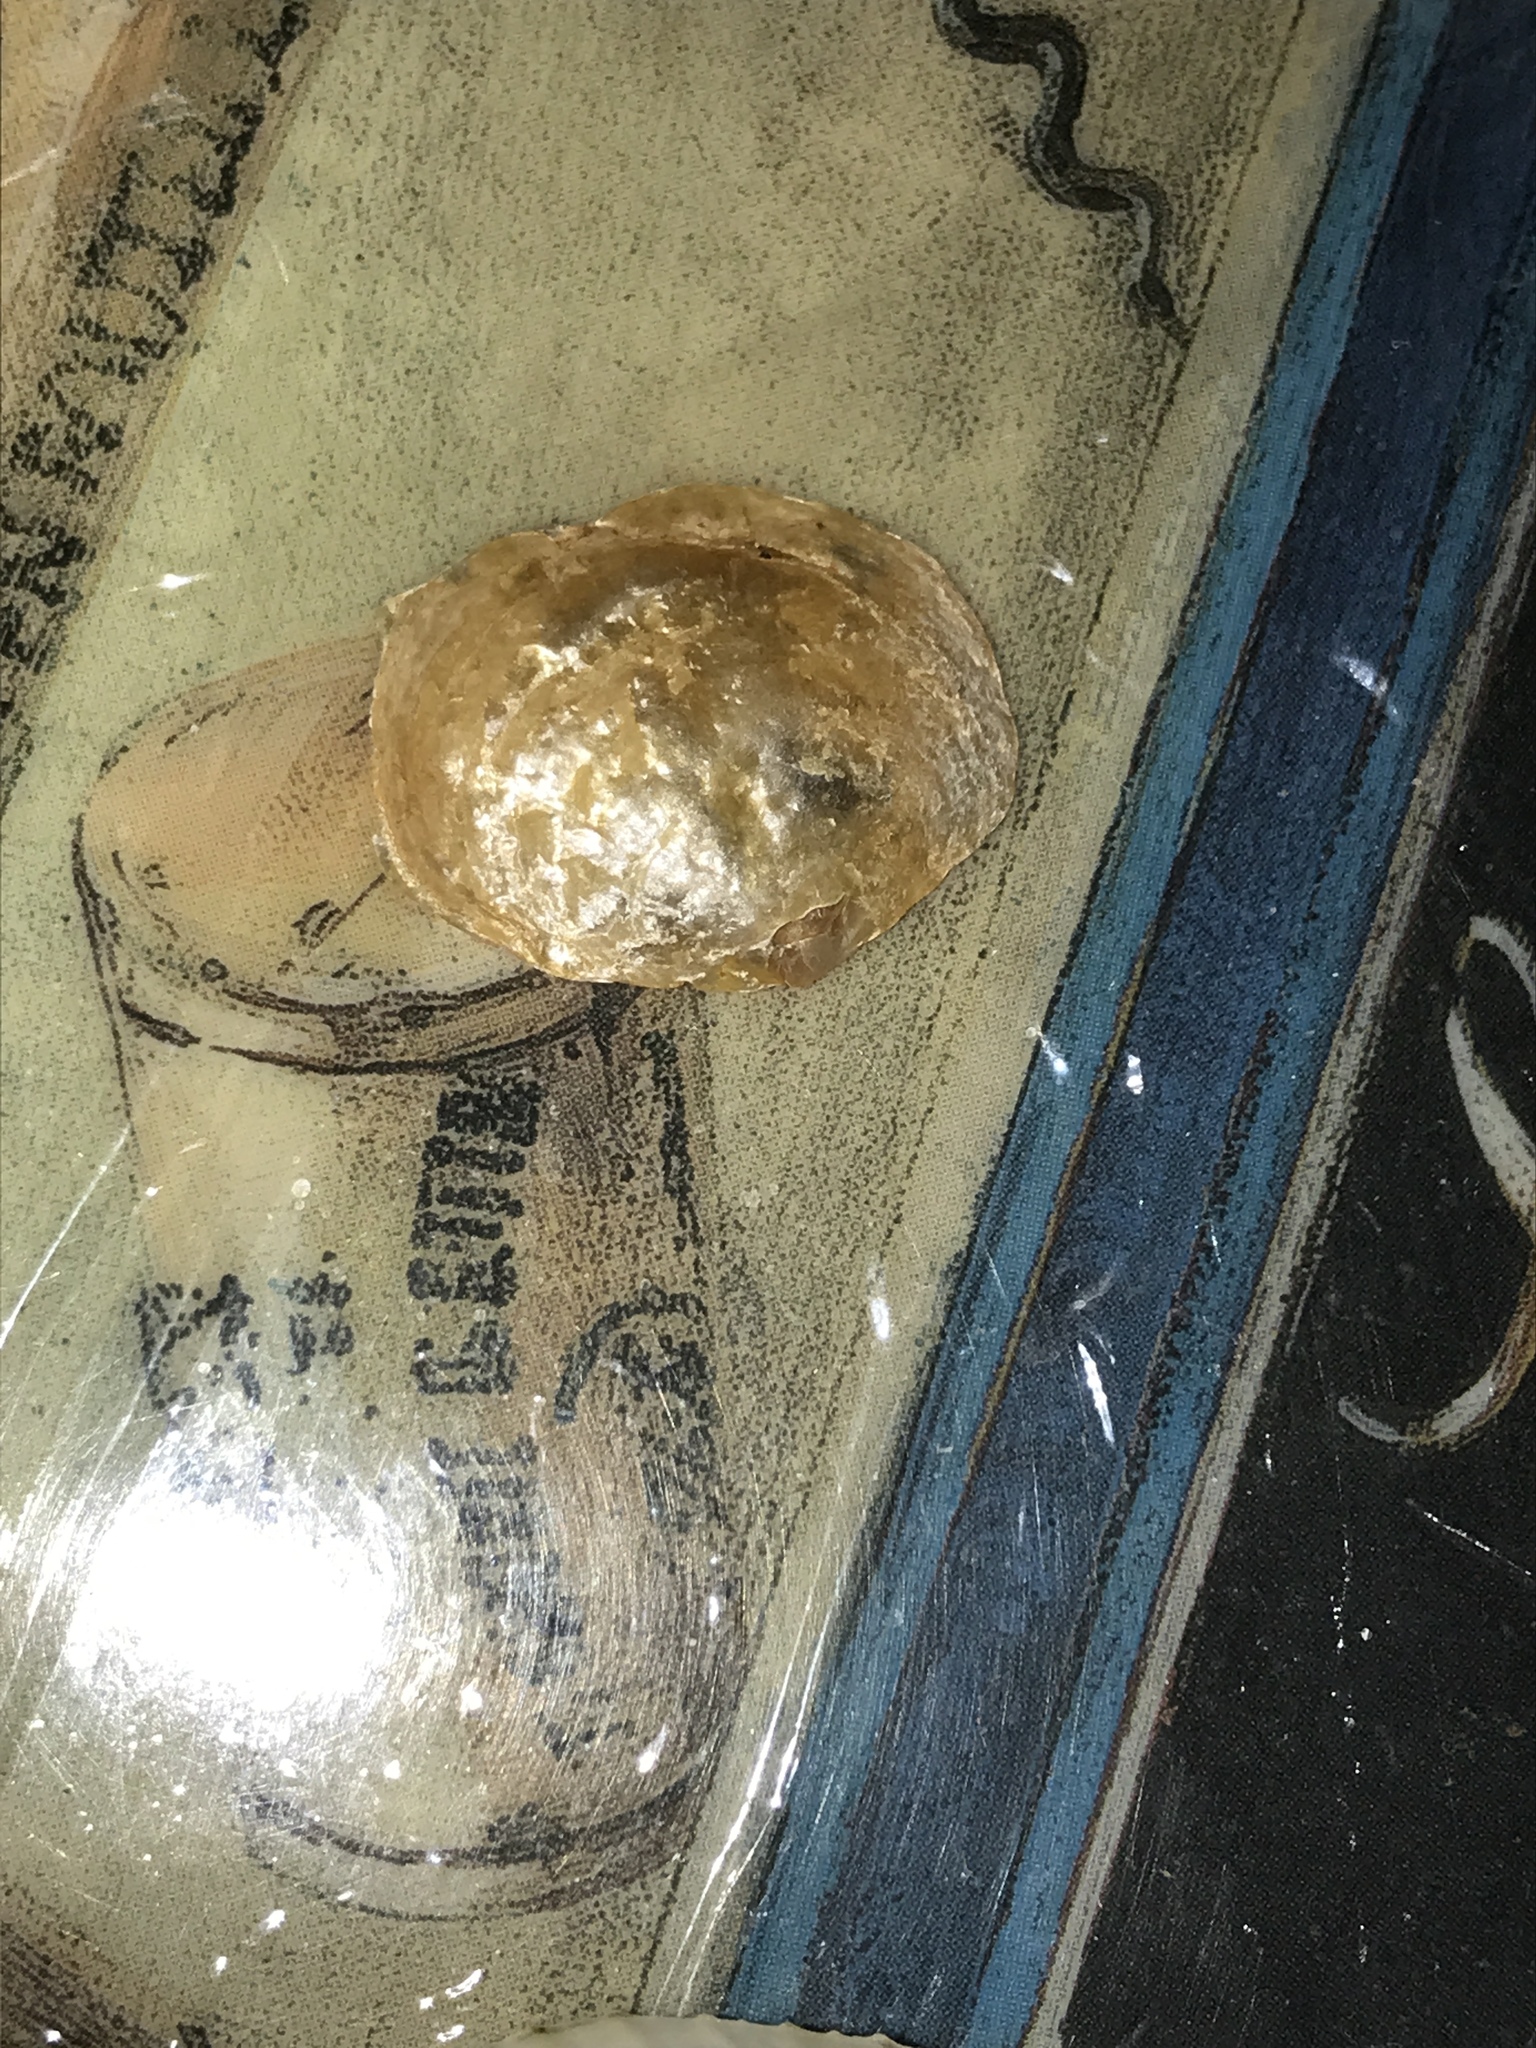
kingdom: Animalia
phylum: Mollusca
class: Bivalvia
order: Pectinida
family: Anomiidae
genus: Anomia
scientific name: Anomia simplex
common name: Common jingle shell
